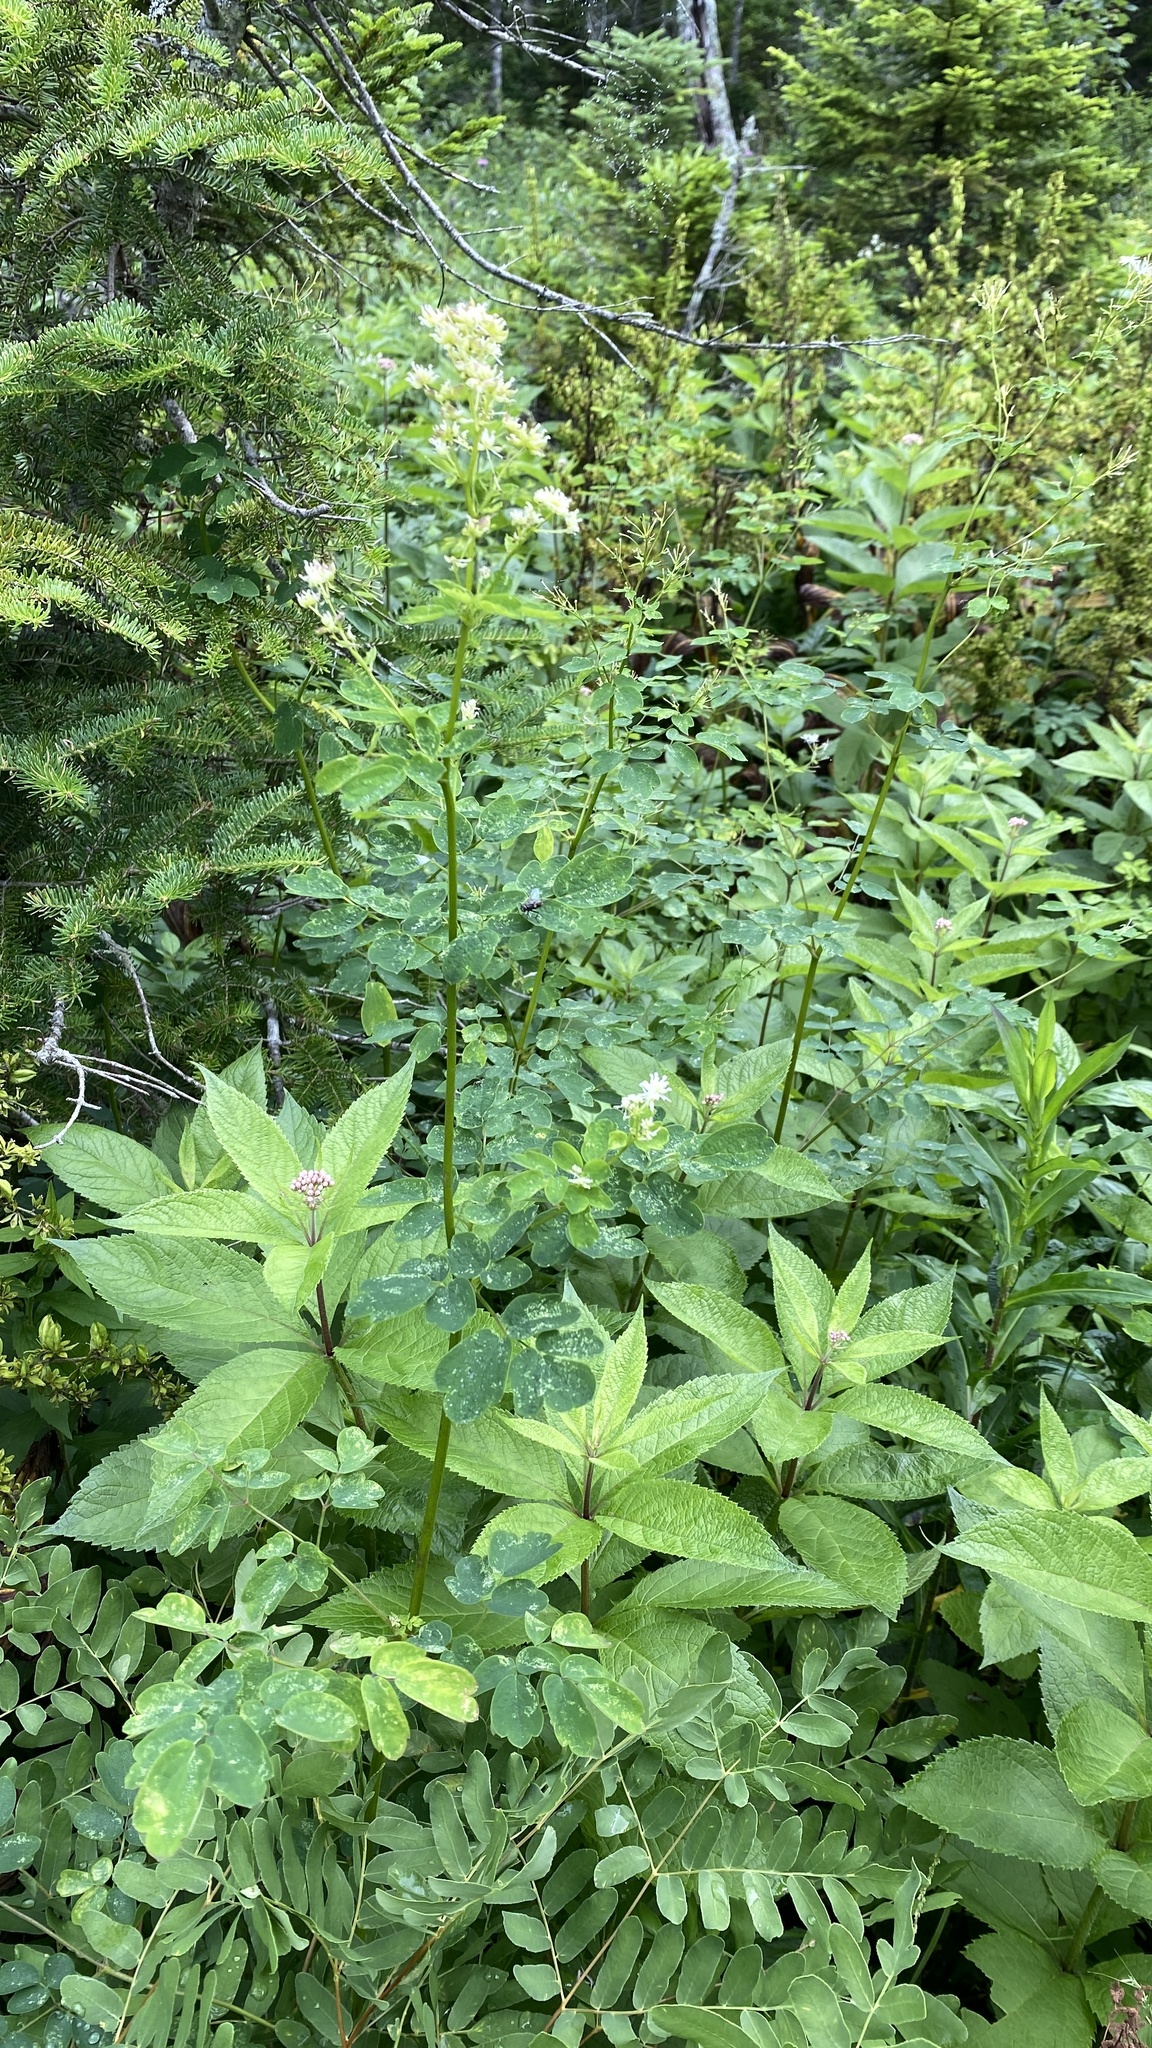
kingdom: Plantae
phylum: Tracheophyta
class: Magnoliopsida
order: Ranunculales
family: Ranunculaceae
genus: Thalictrum
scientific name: Thalictrum pubescens
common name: King-of-the-meadow
